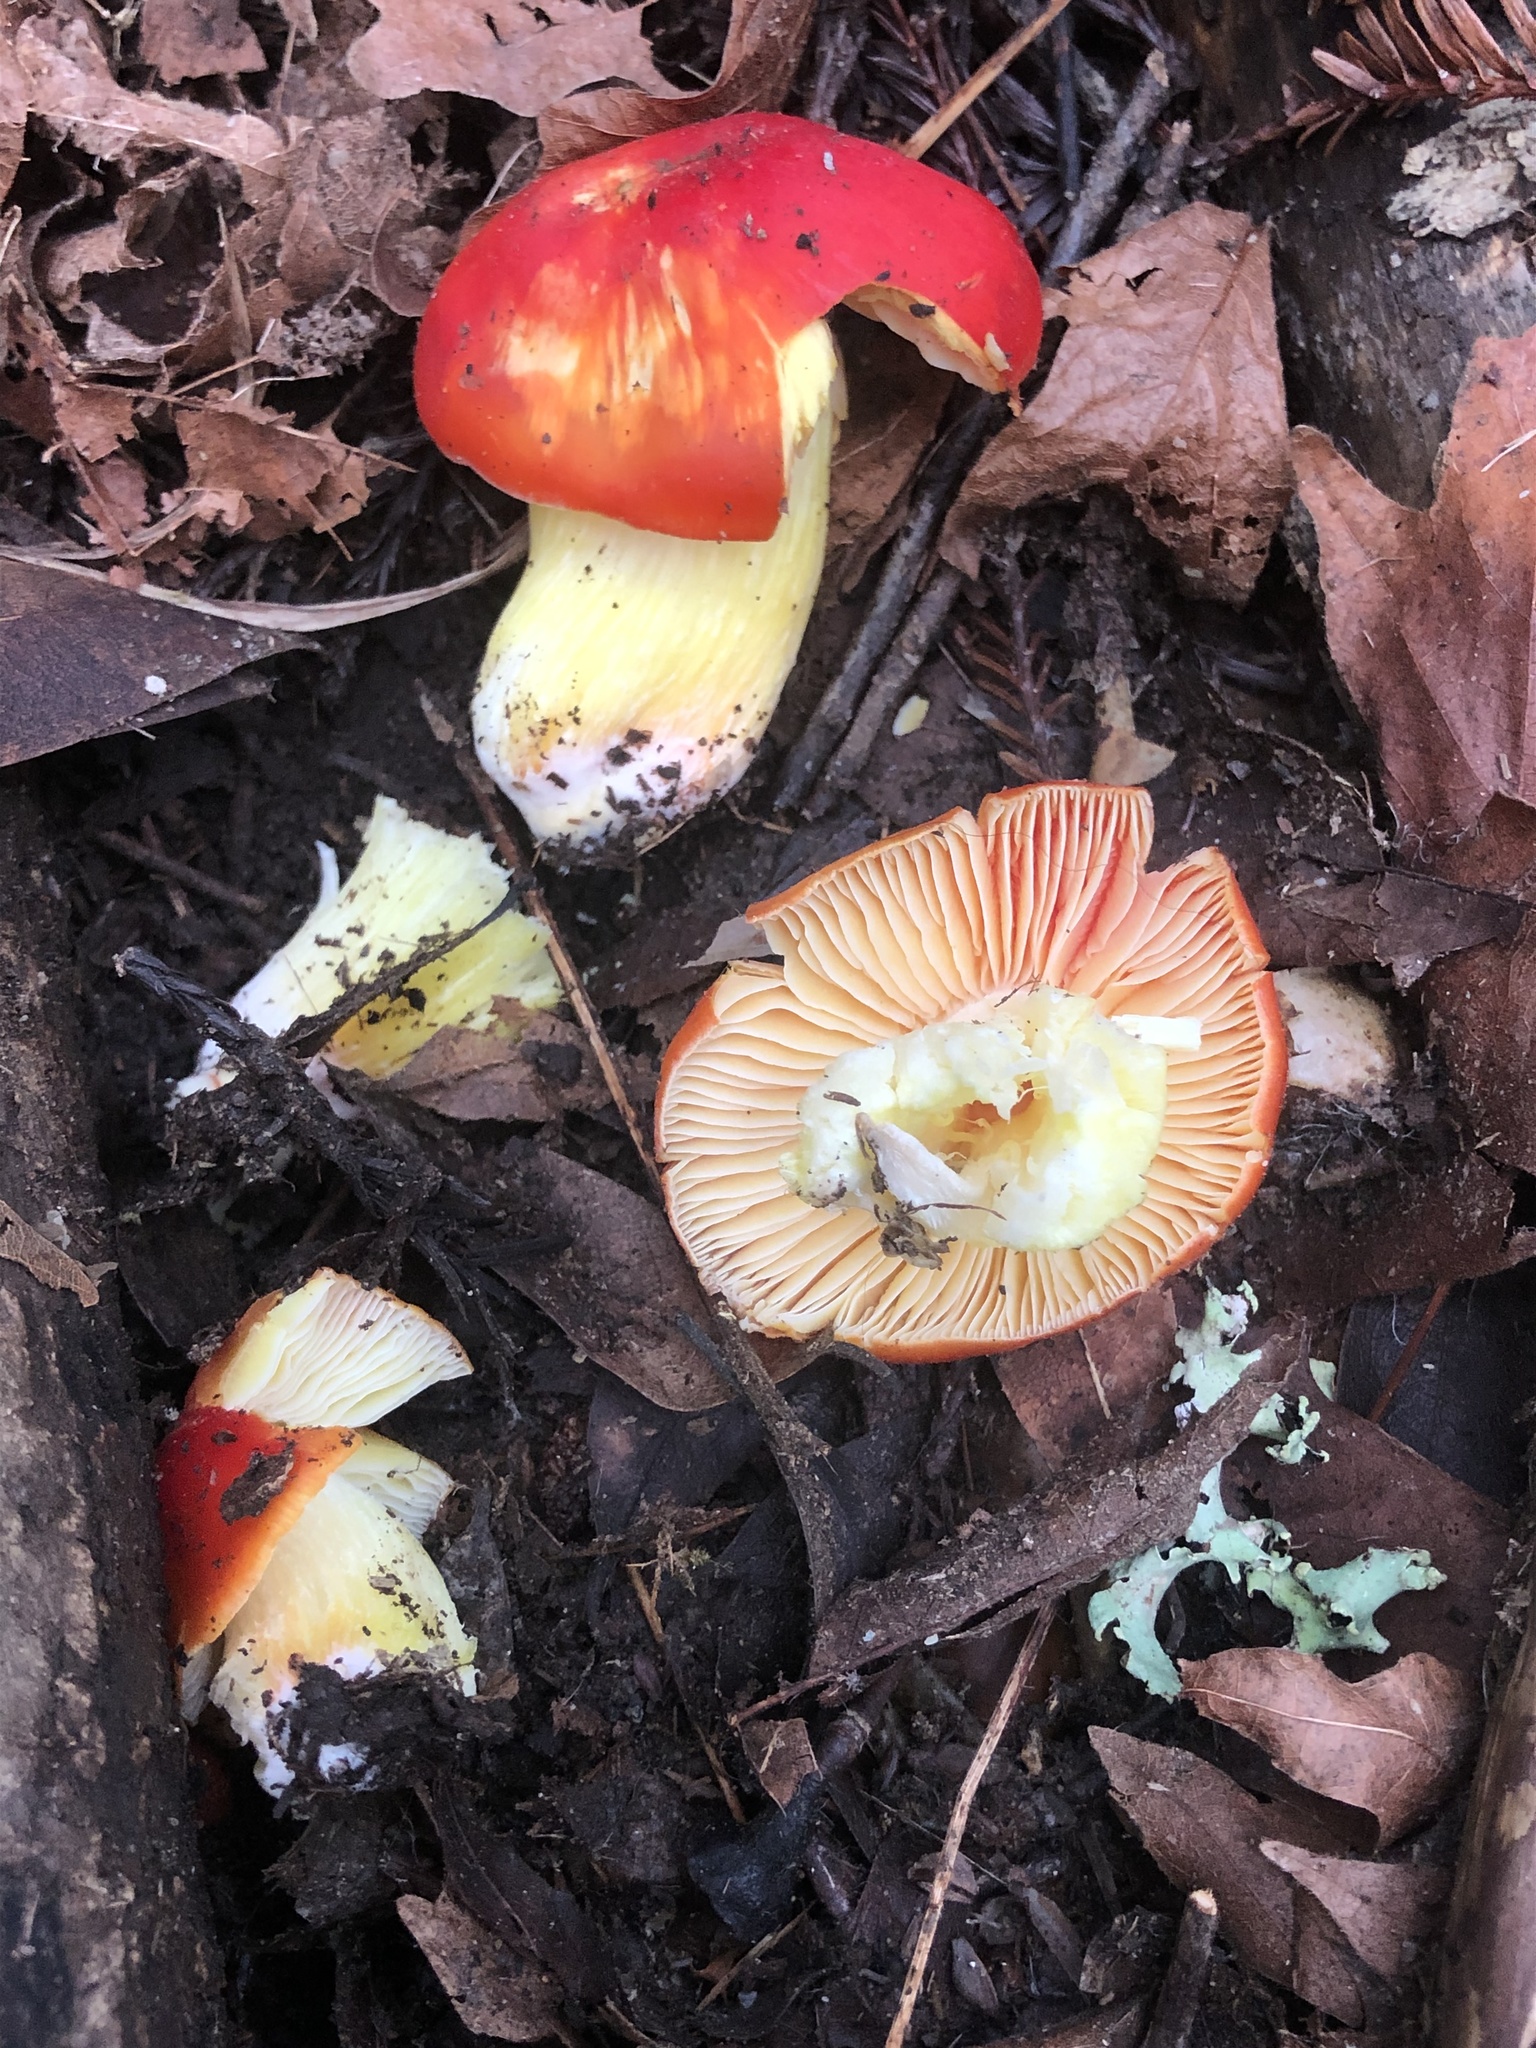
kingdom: Fungi
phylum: Basidiomycota
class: Agaricomycetes
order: Agaricales
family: Hygrophoraceae
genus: Hygrocybe
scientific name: Hygrocybe laetissima
